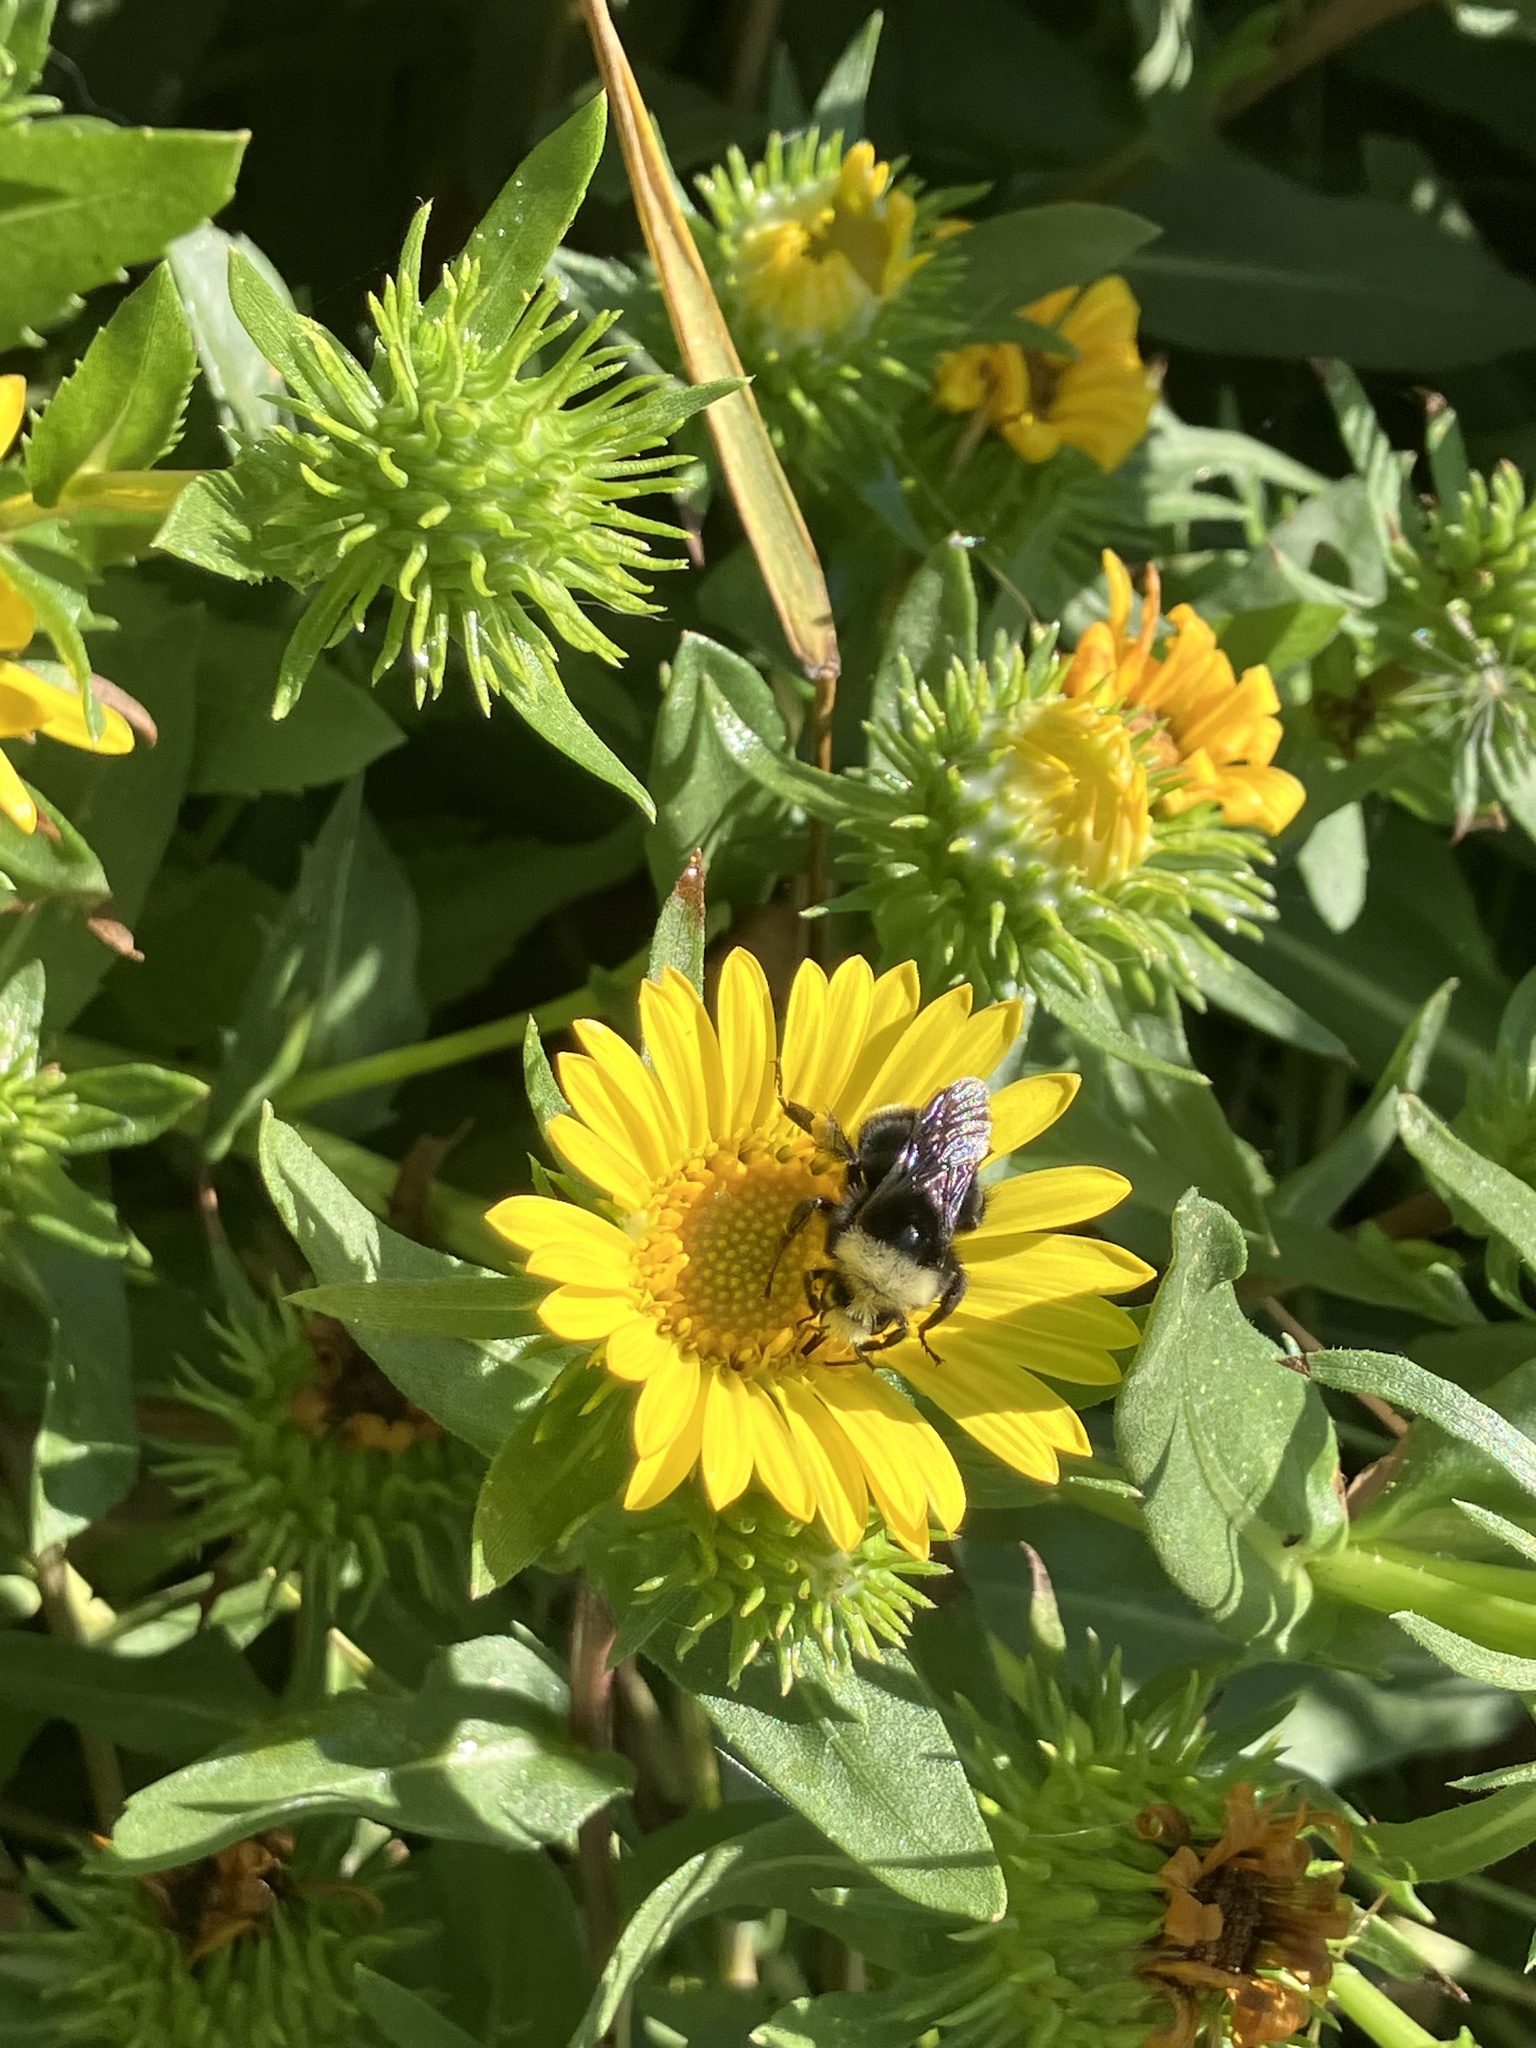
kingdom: Animalia
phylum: Arthropoda
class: Insecta
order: Hymenoptera
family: Apidae
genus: Bombus
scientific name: Bombus vosnesenskii
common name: Vosnesensky bumble bee
